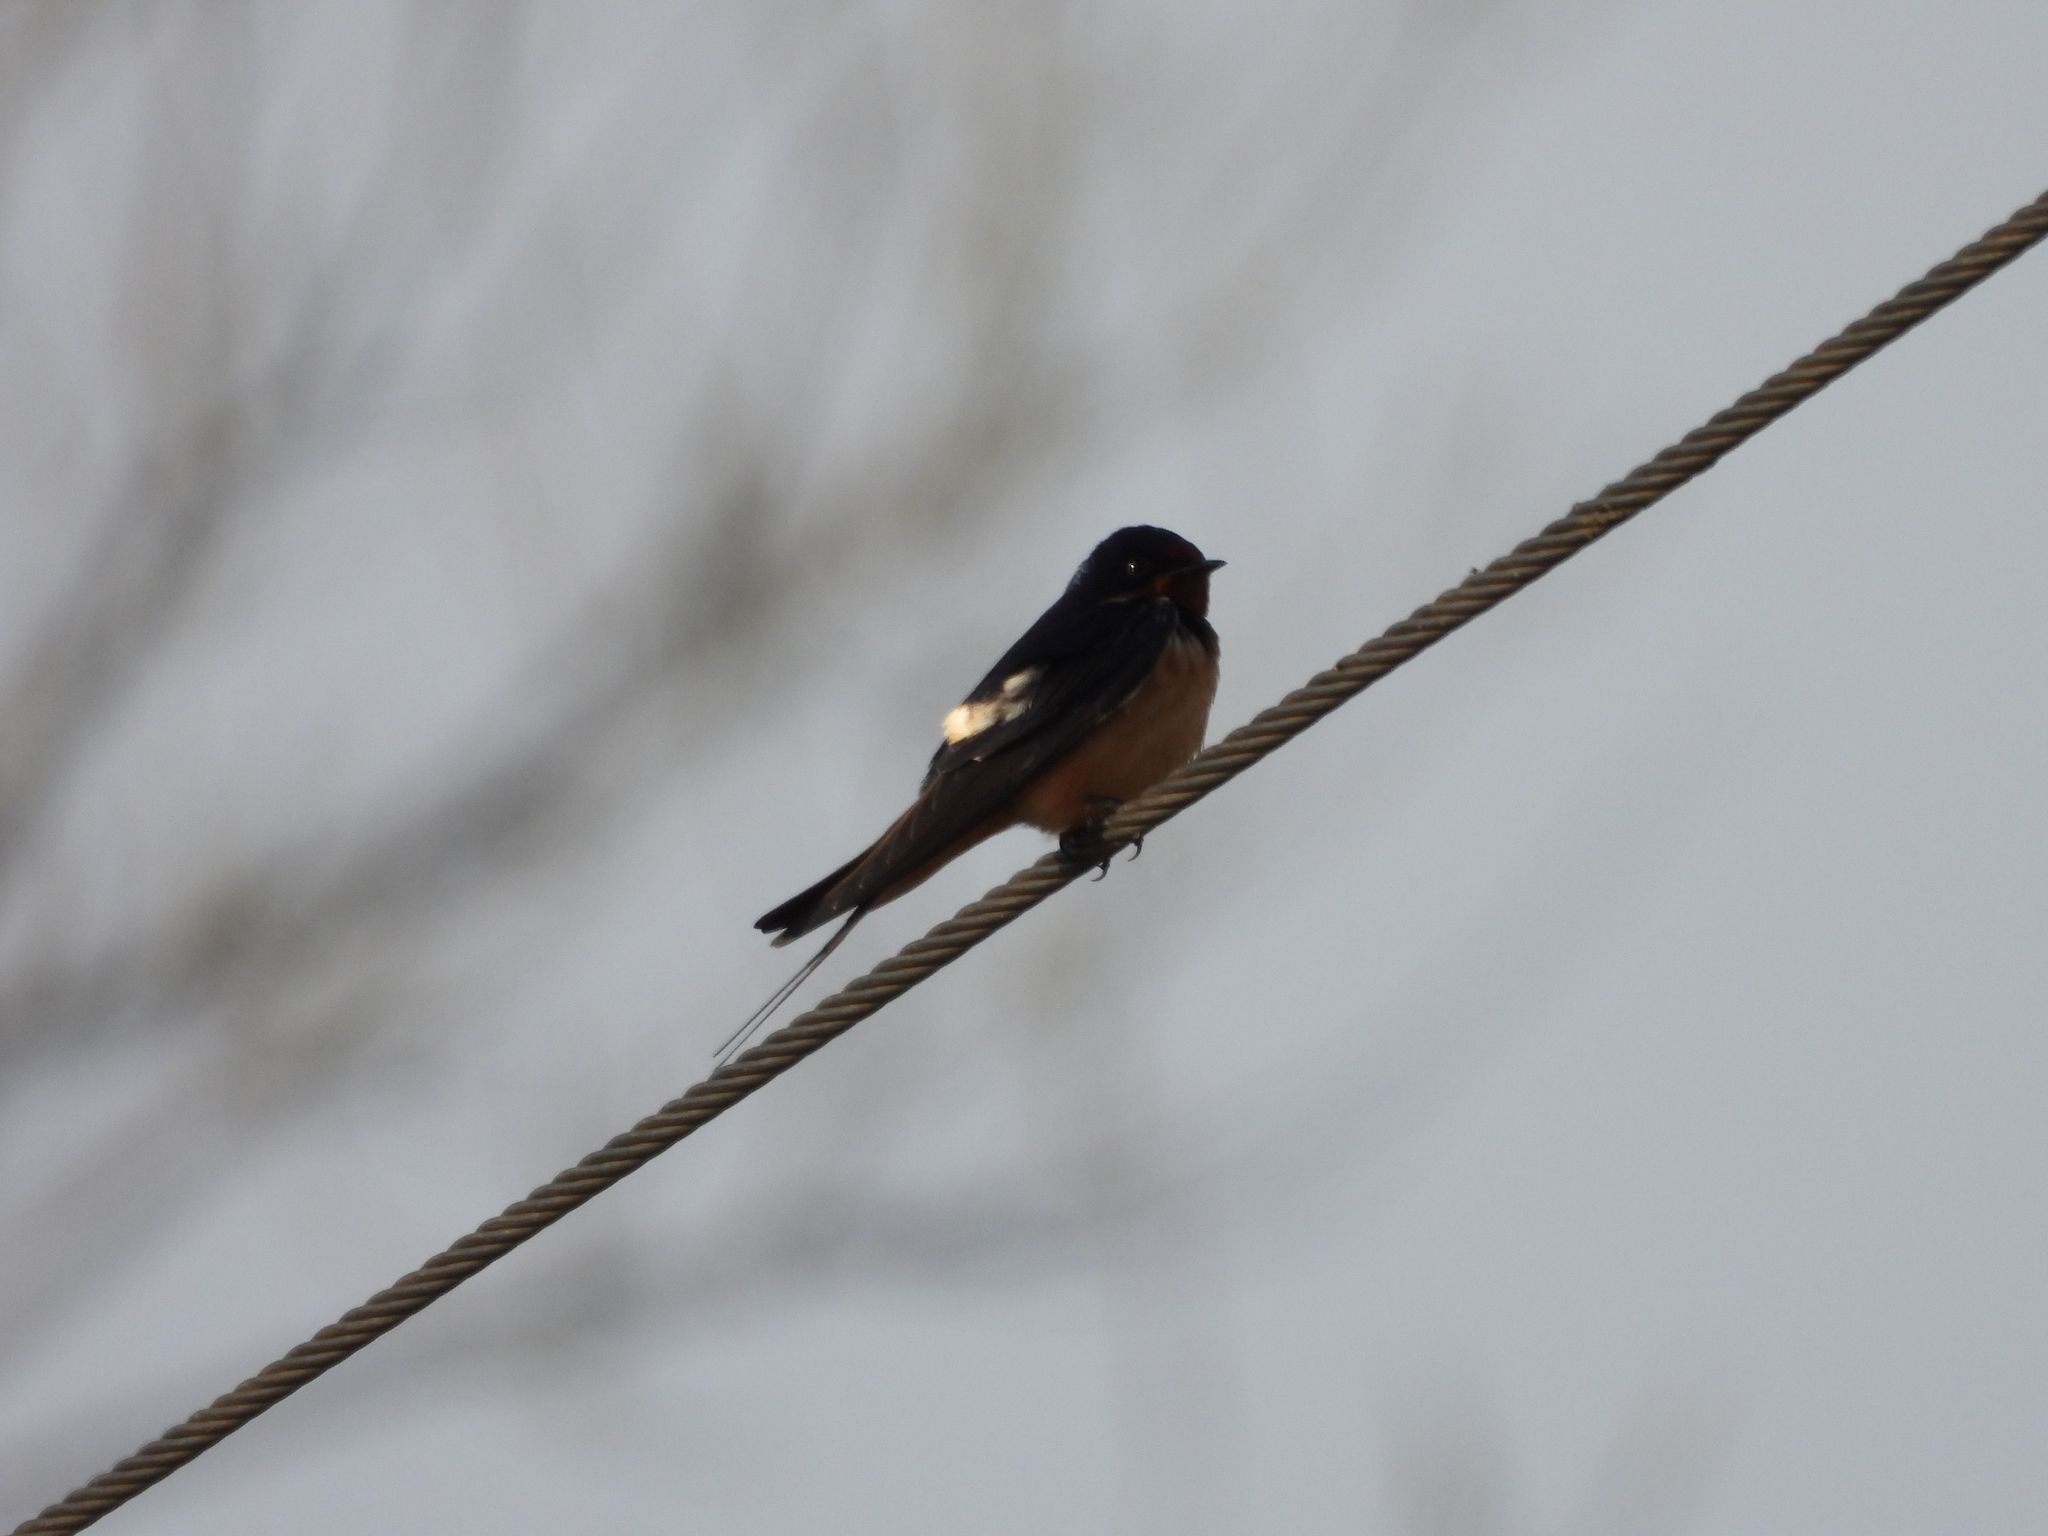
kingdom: Animalia
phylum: Chordata
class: Aves
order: Passeriformes
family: Hirundinidae
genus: Hirundo
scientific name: Hirundo rustica
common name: Barn swallow
